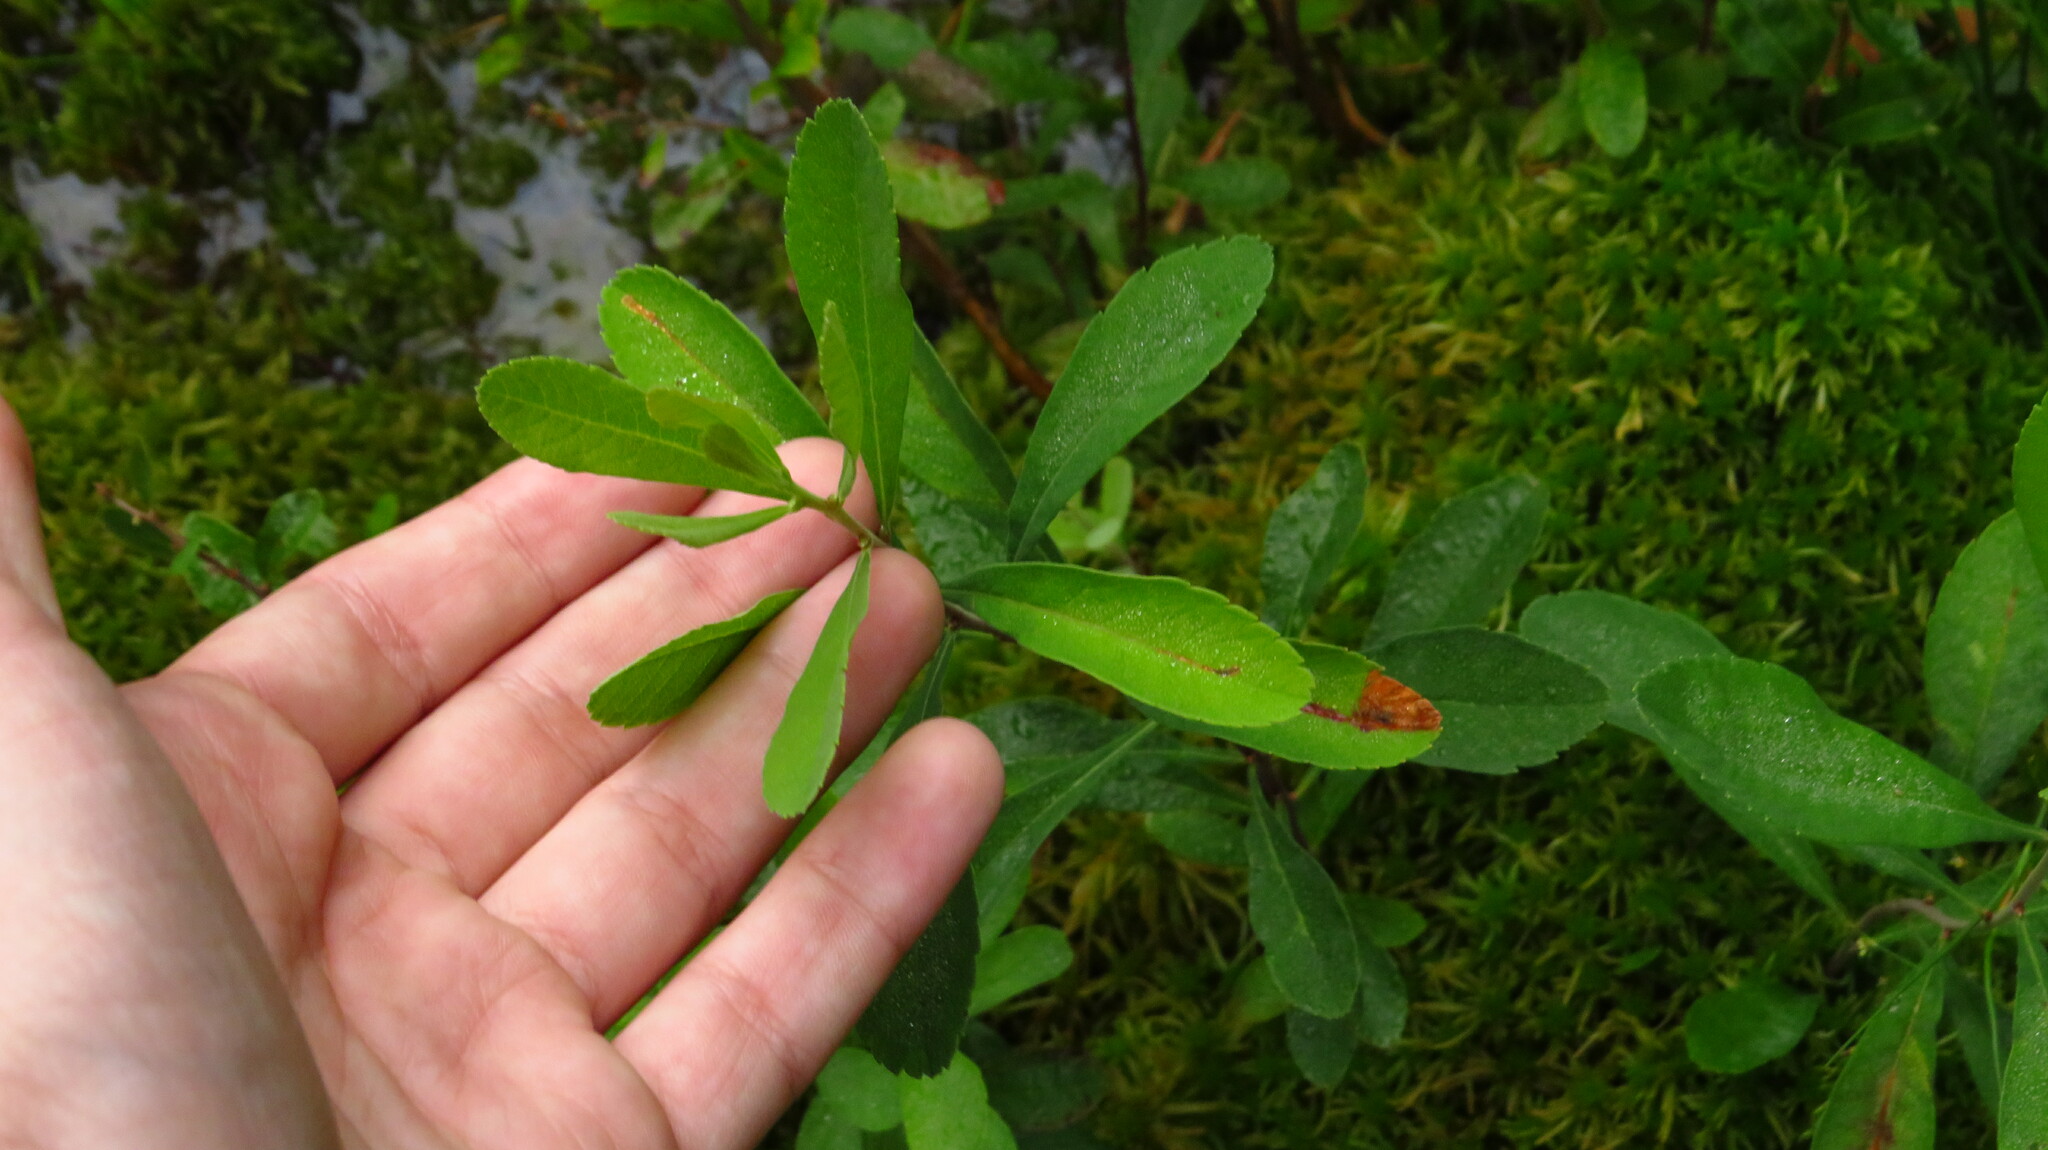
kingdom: Plantae
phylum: Tracheophyta
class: Magnoliopsida
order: Fagales
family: Myricaceae
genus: Myrica
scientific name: Myrica gale
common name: Sweet gale
